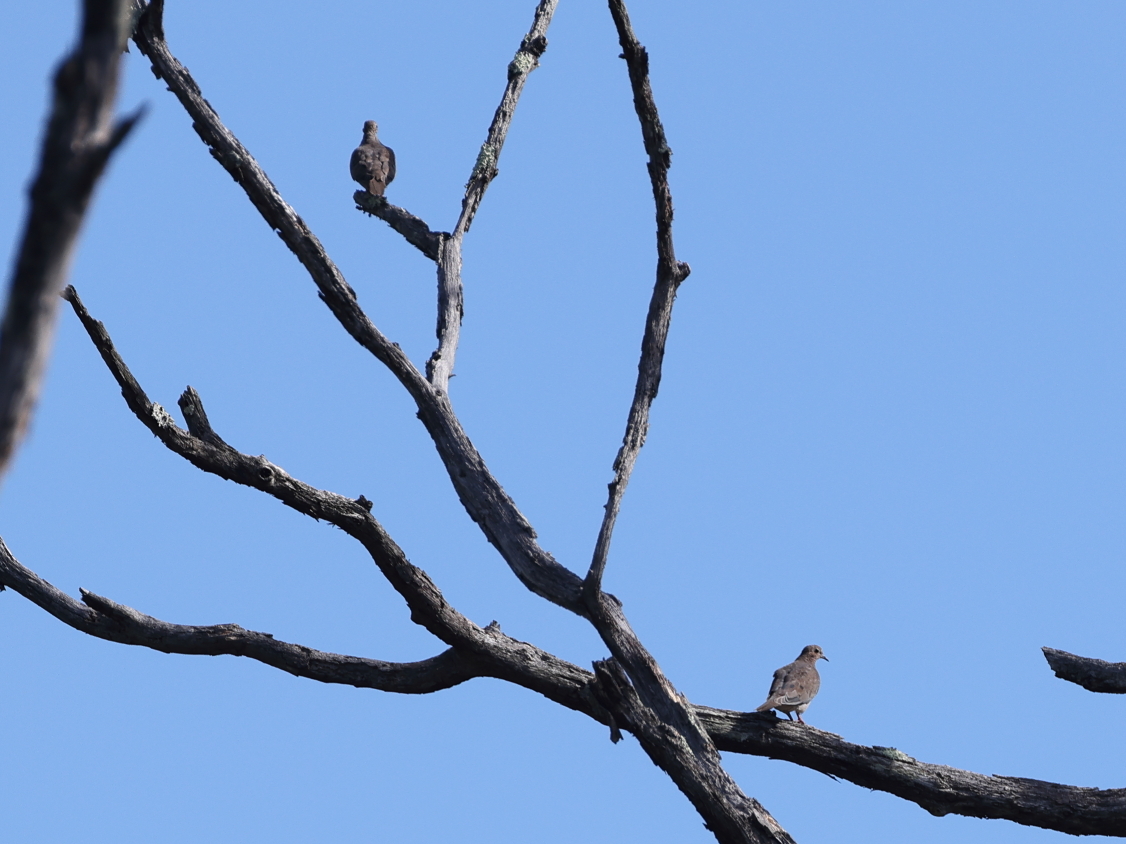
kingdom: Animalia
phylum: Chordata
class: Aves
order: Columbiformes
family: Columbidae
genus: Zenaida
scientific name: Zenaida macroura
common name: Mourning dove
